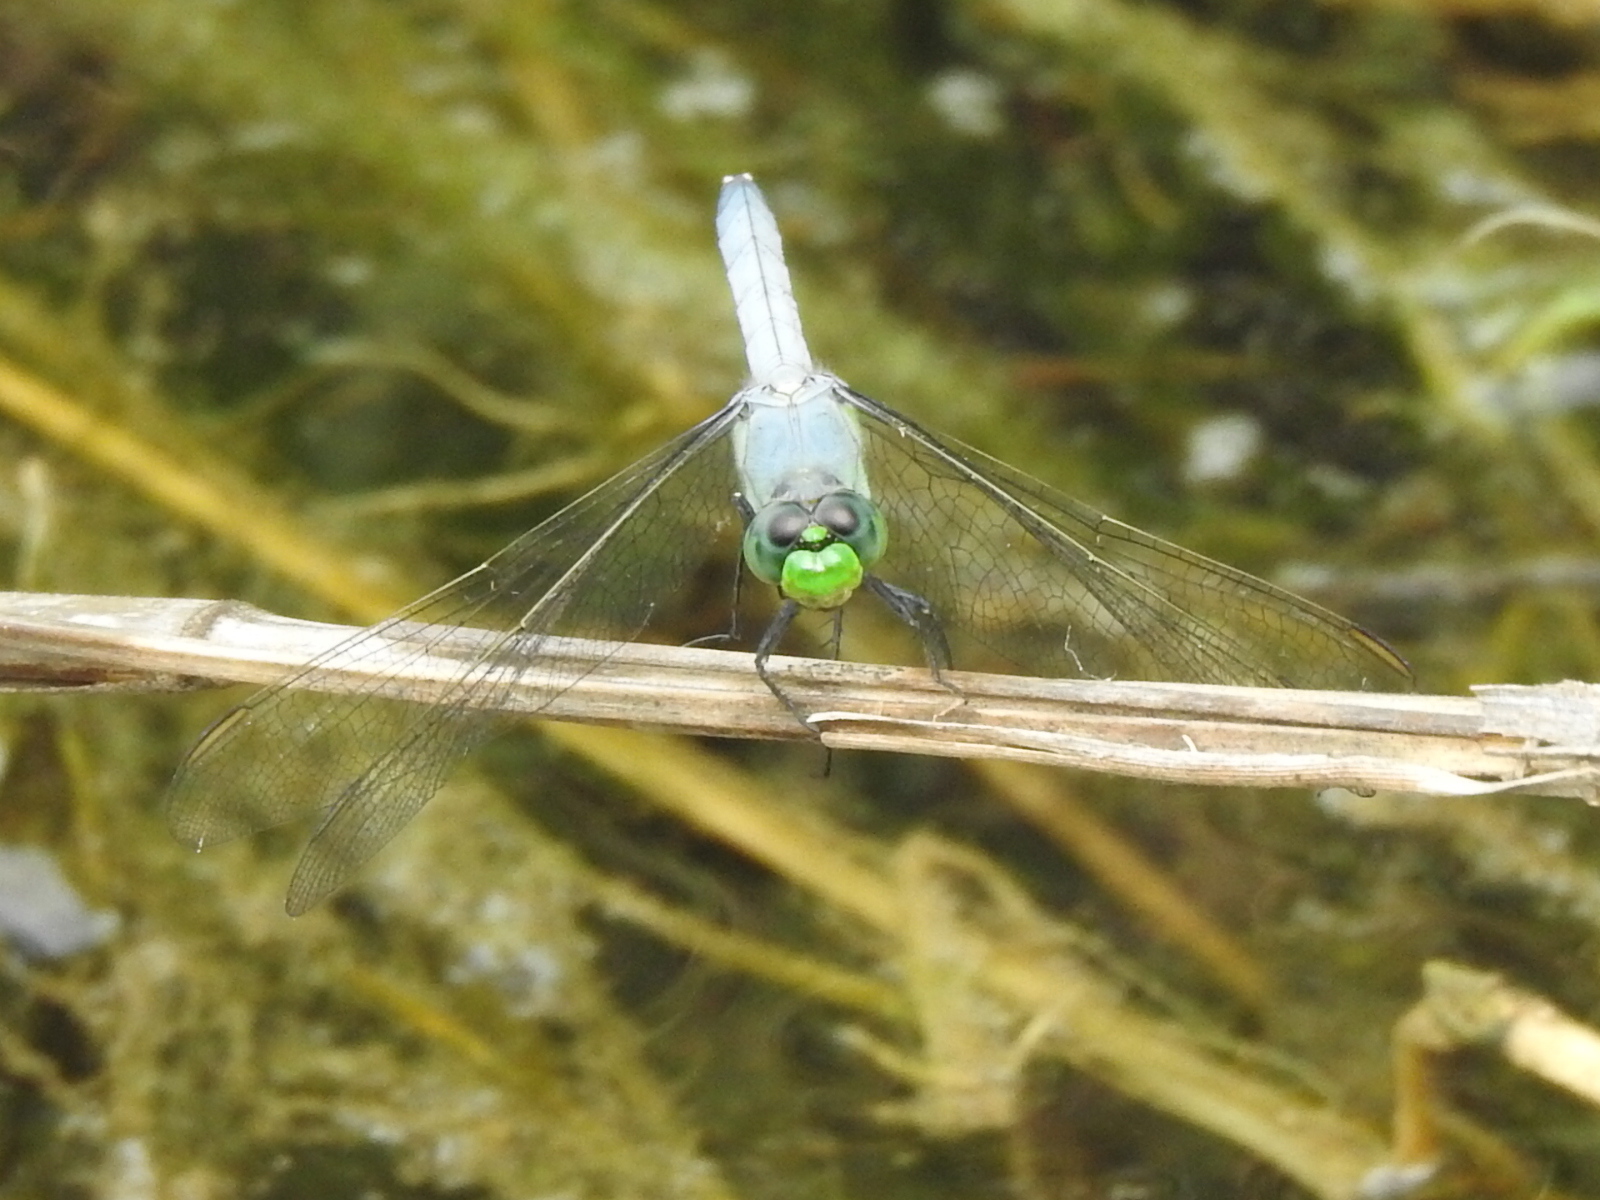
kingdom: Animalia
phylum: Arthropoda
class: Insecta
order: Odonata
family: Libellulidae
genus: Erythemis
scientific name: Erythemis simplicicollis
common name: Eastern pondhawk
